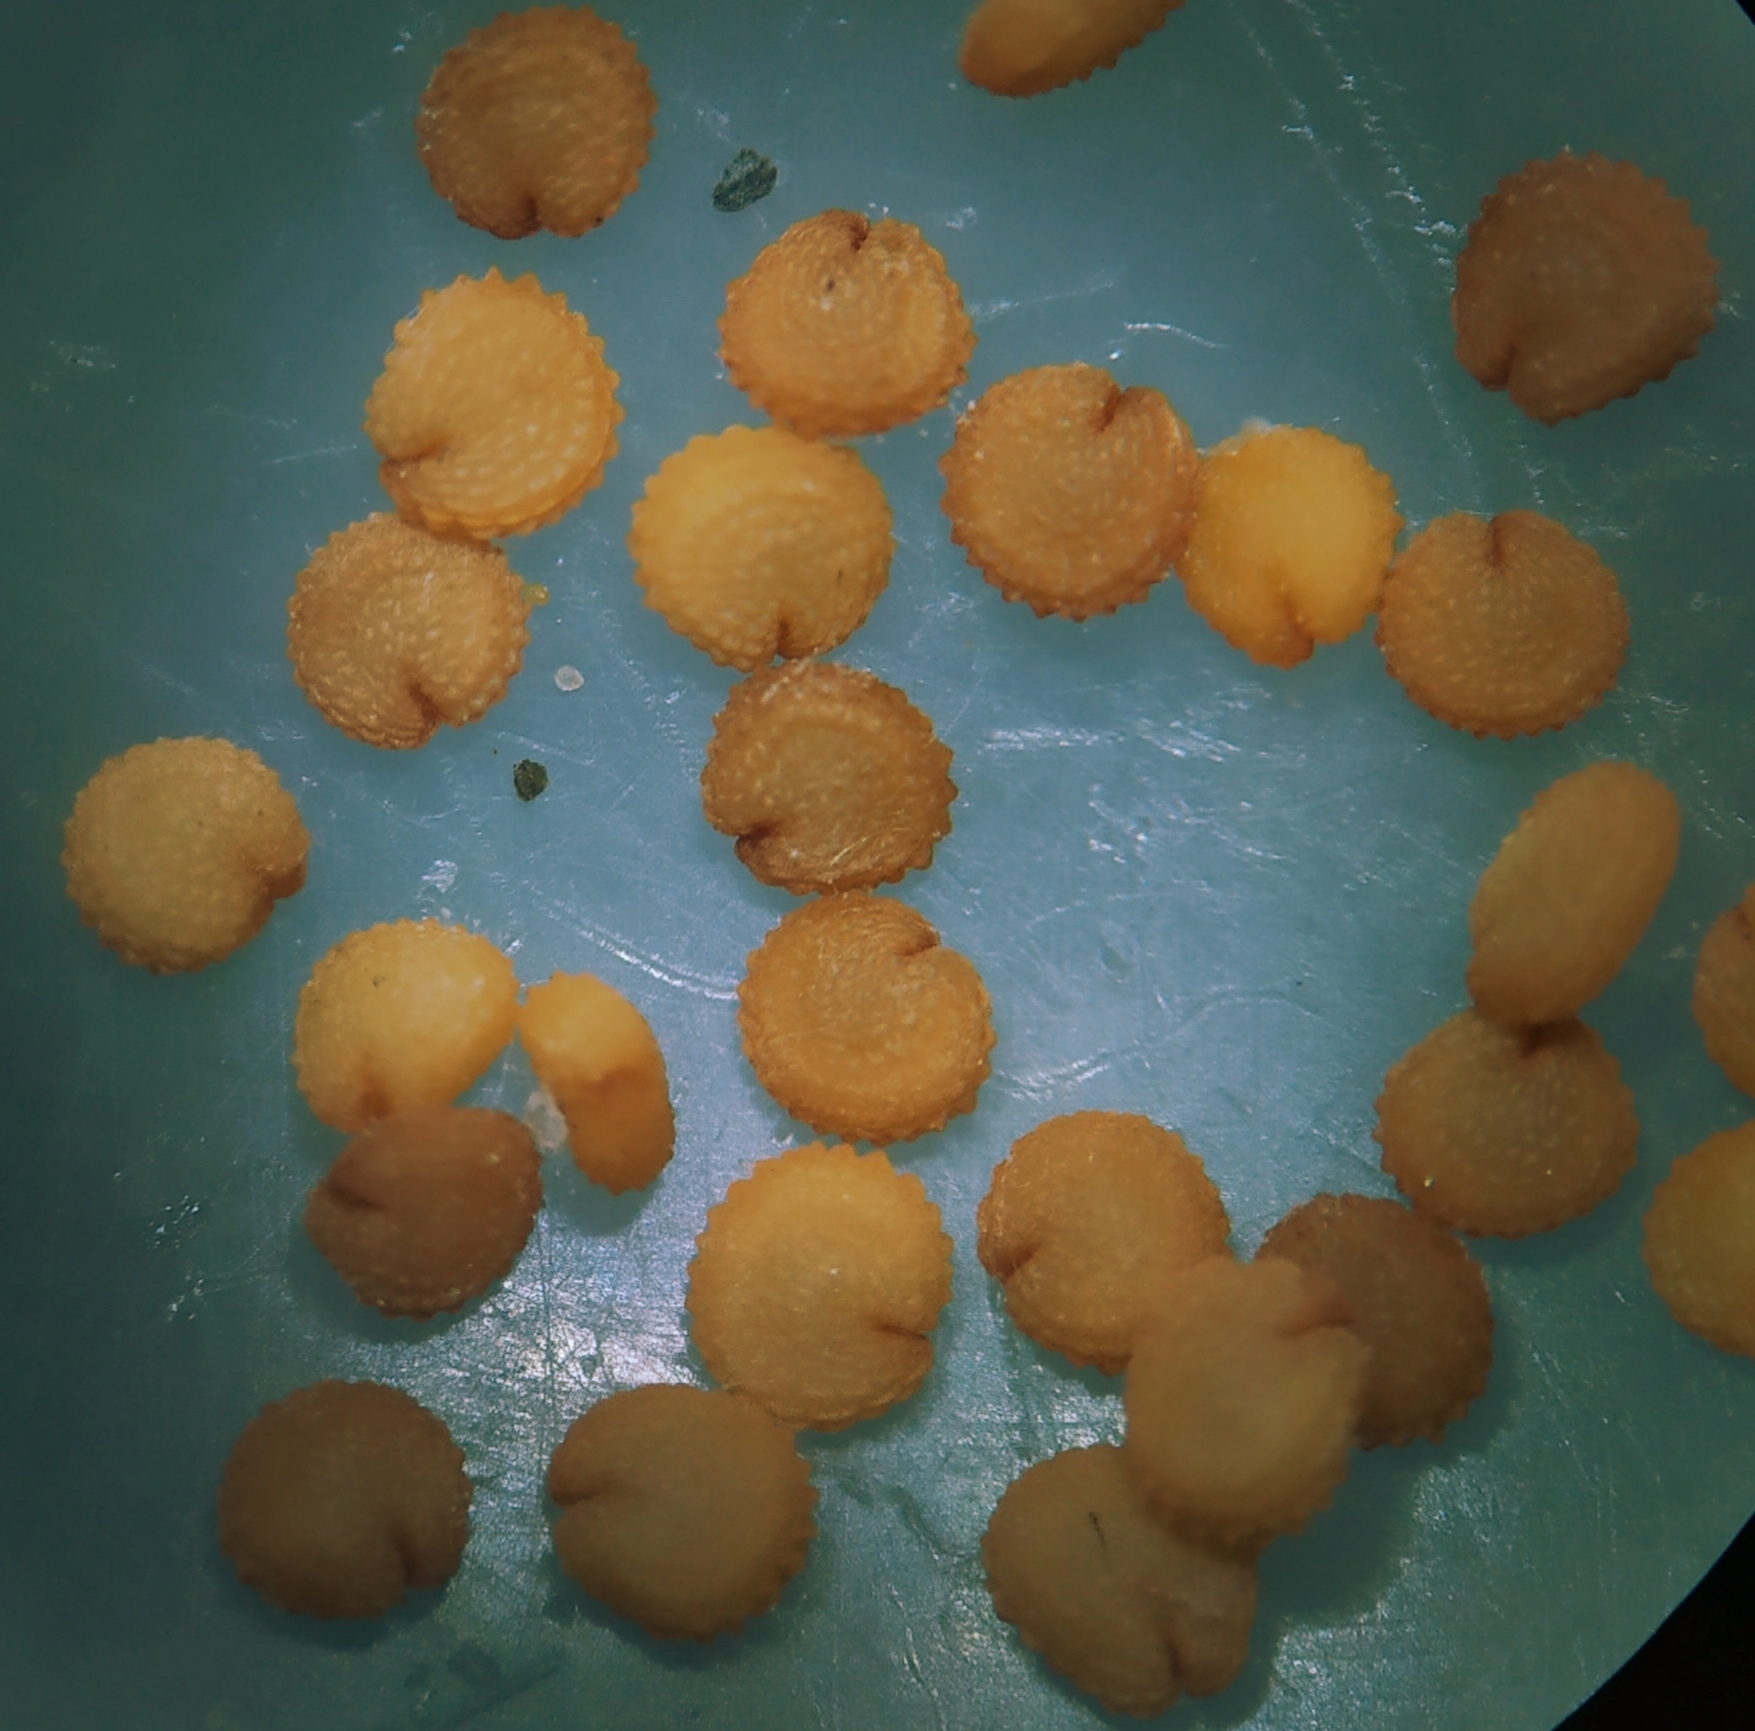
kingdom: Plantae
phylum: Tracheophyta
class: Magnoliopsida
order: Caryophyllales
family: Caryophyllaceae
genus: Stellaria
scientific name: Stellaria media
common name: Common chickweed
